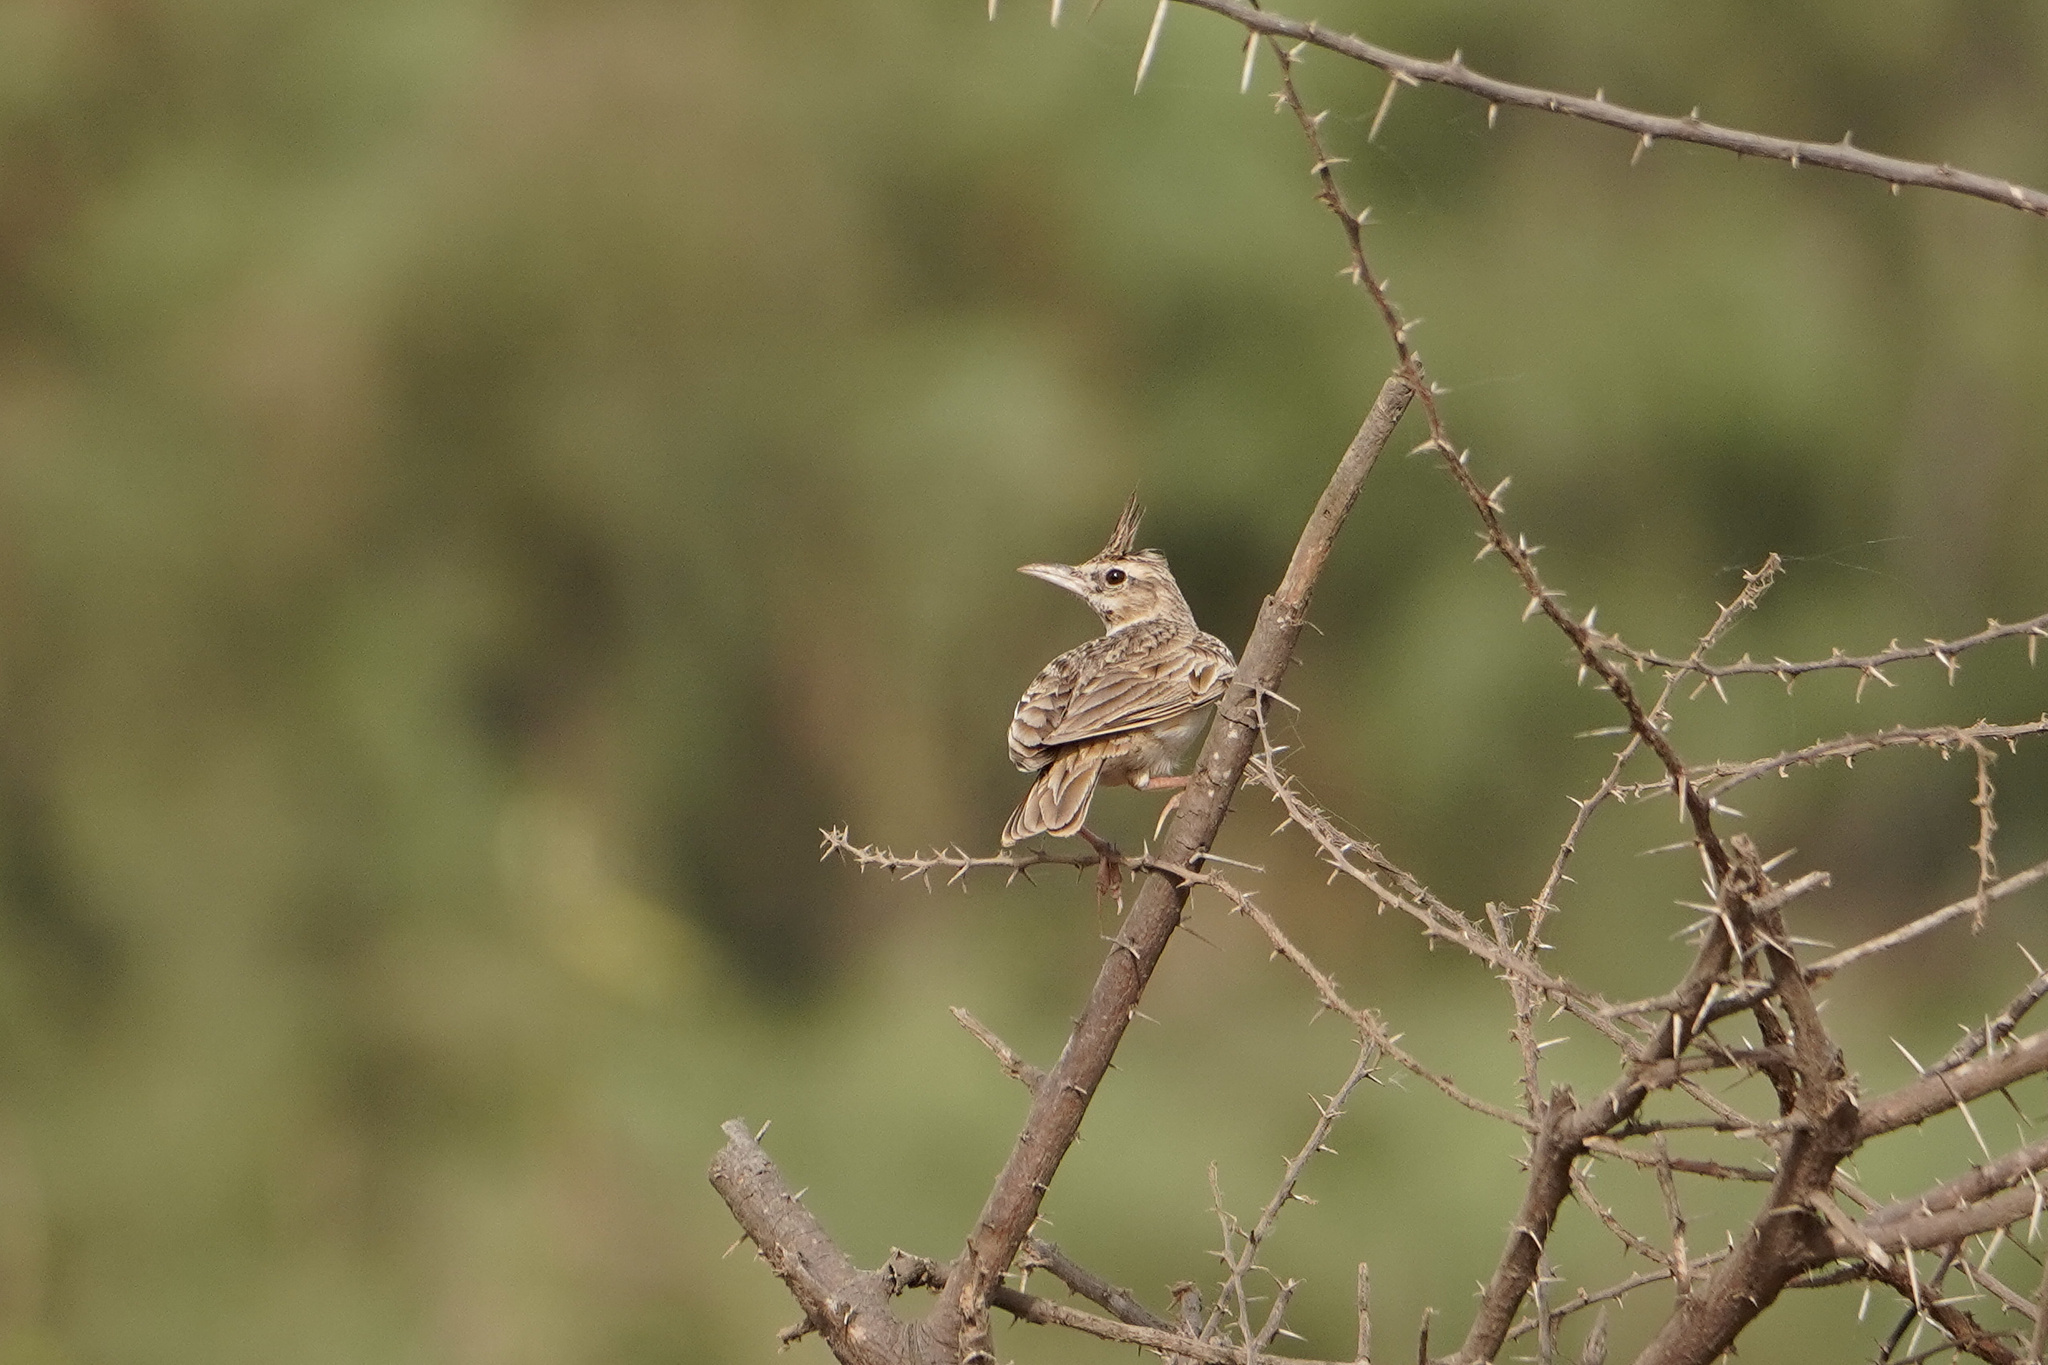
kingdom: Animalia
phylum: Chordata
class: Aves
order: Passeriformes
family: Alaudidae
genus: Galerida
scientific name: Galerida cristata
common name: Crested lark
